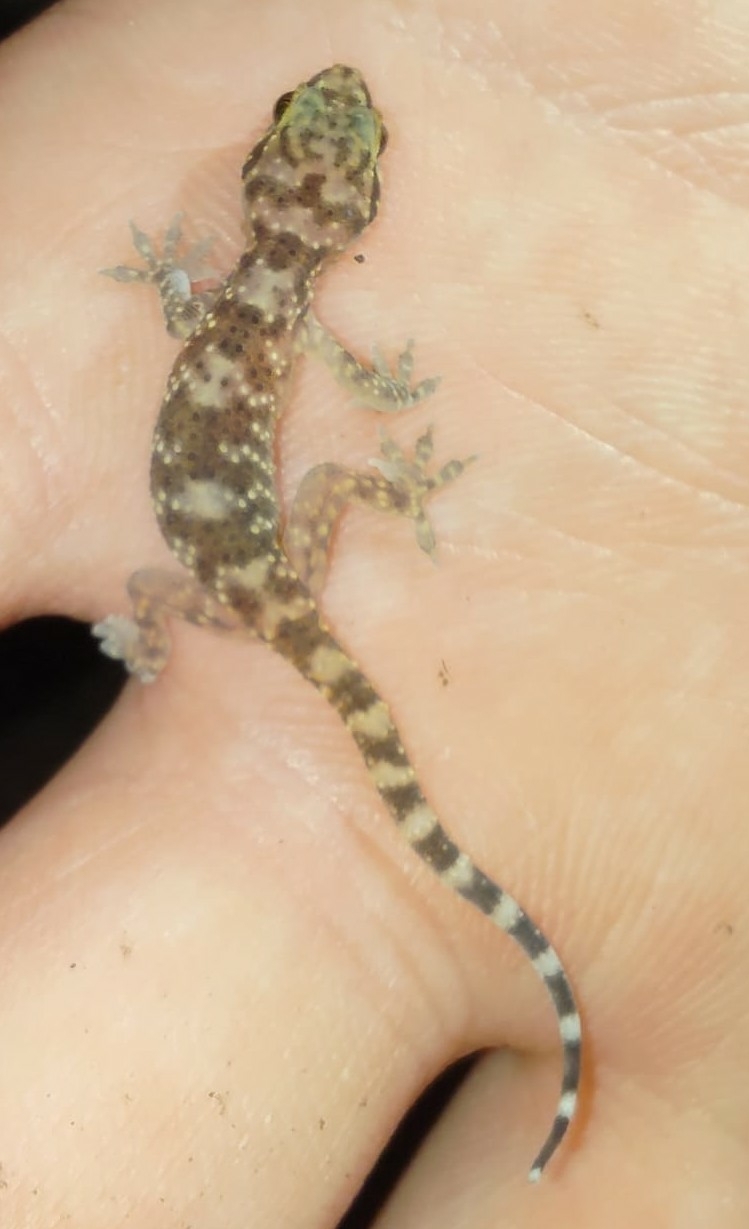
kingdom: Animalia
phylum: Chordata
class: Squamata
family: Gekkonidae
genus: Hemidactylus
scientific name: Hemidactylus turcicus
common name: Turkish gecko
